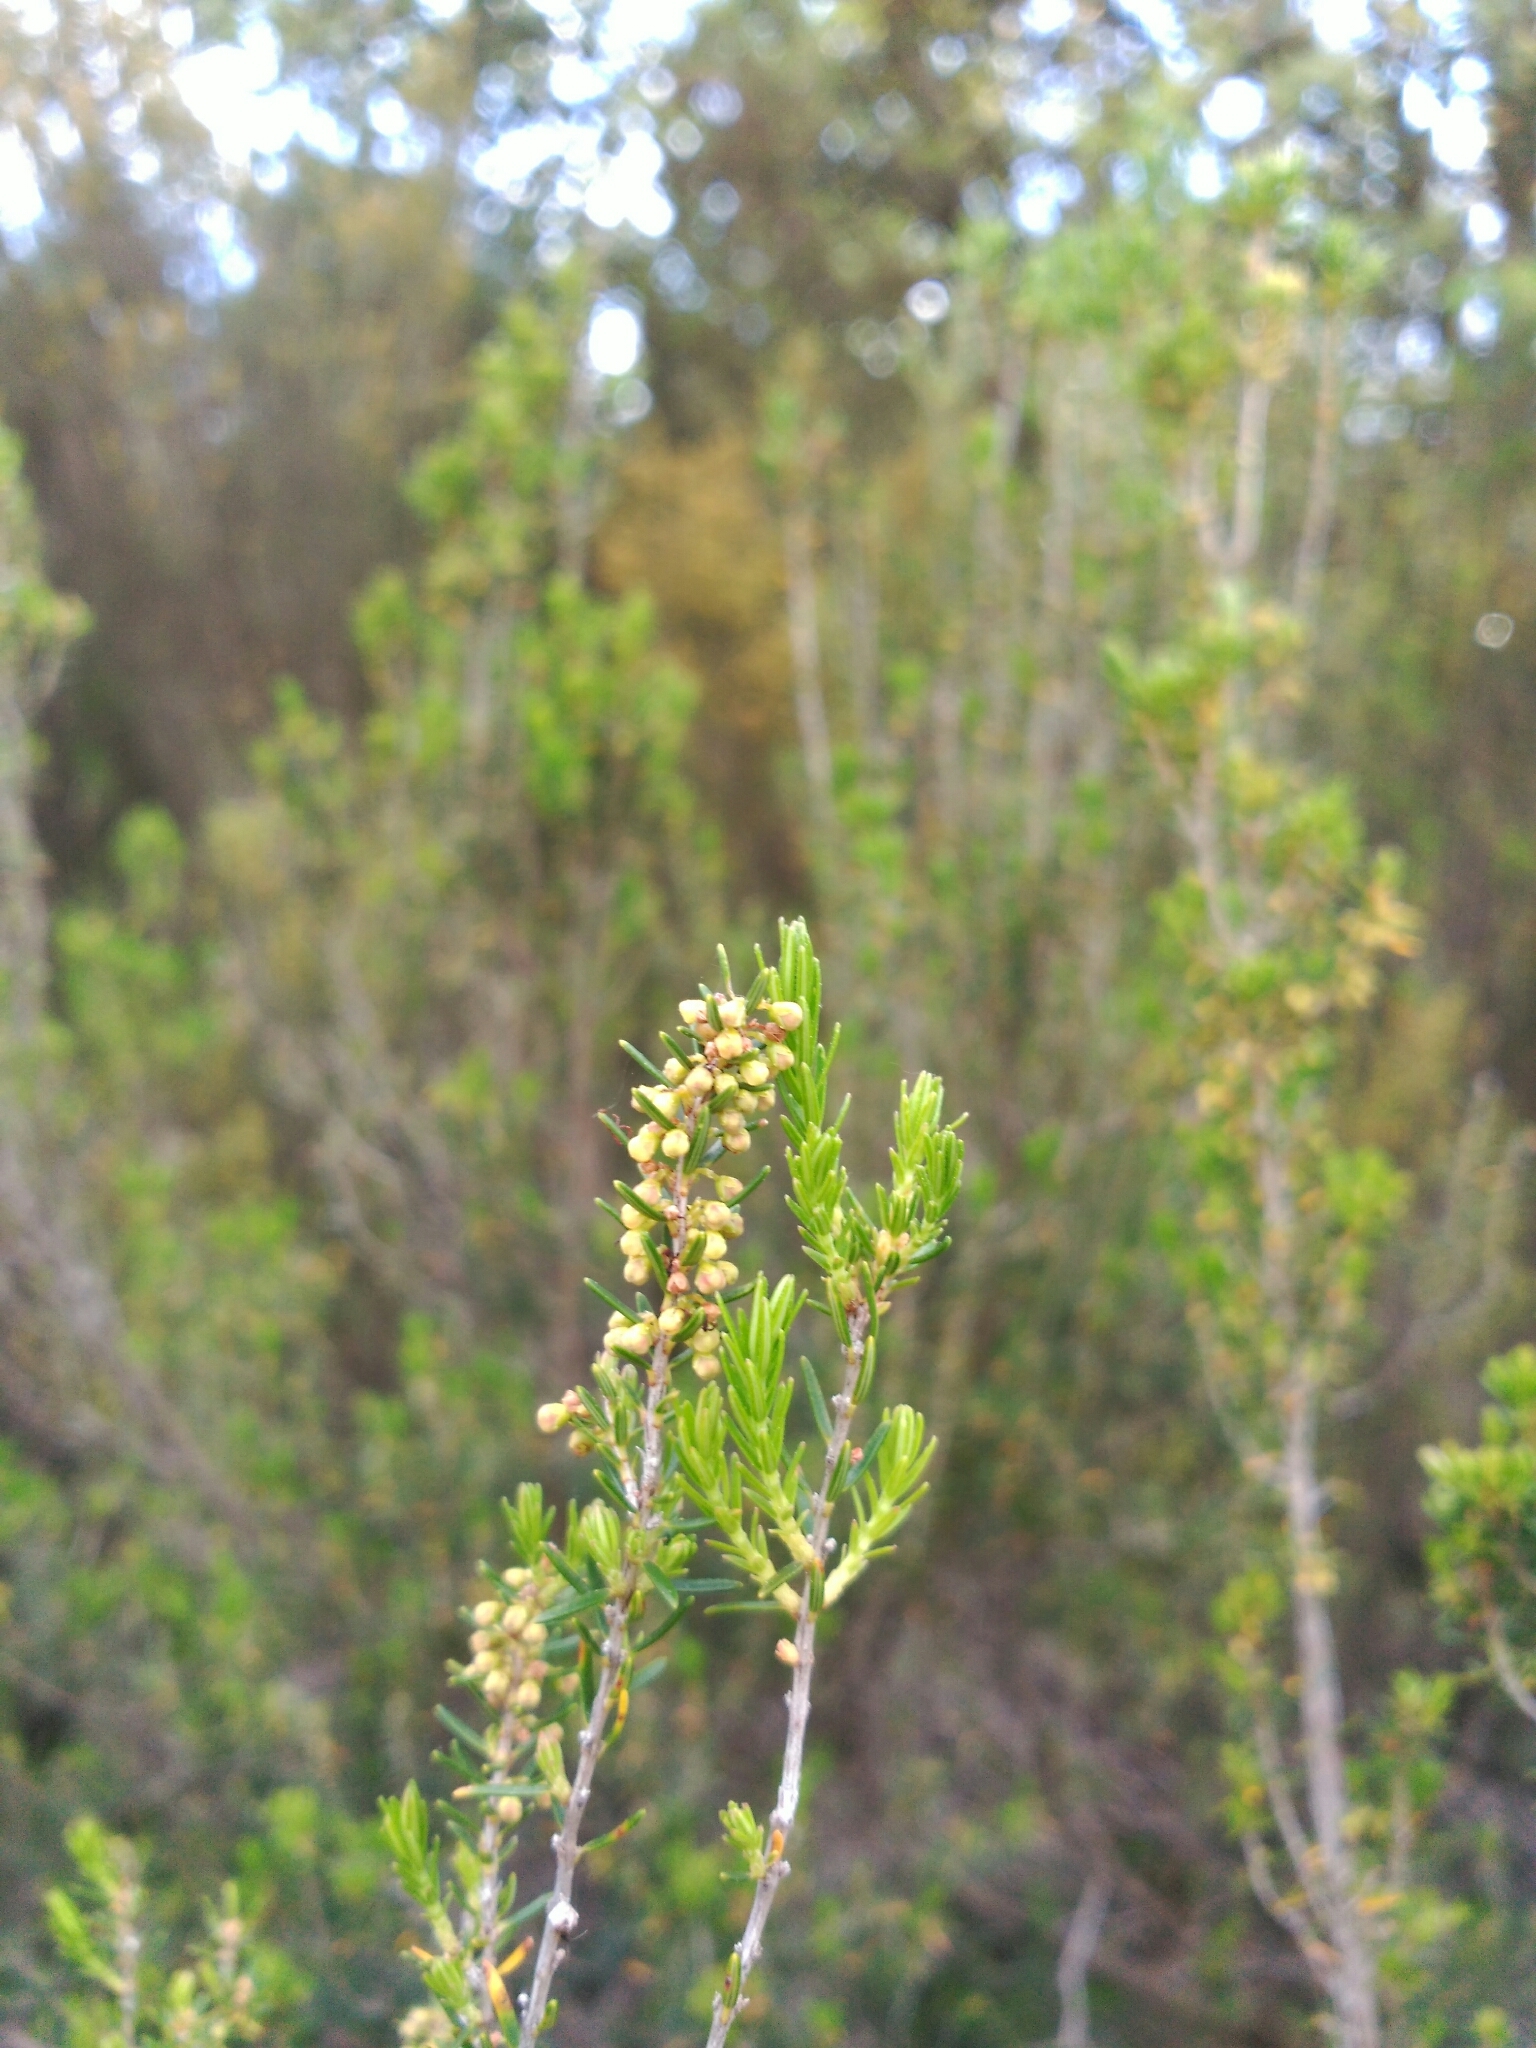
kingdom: Plantae
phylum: Tracheophyta
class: Magnoliopsida
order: Ericales
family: Ericaceae
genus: Erica
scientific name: Erica scoparia
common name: Green heather
